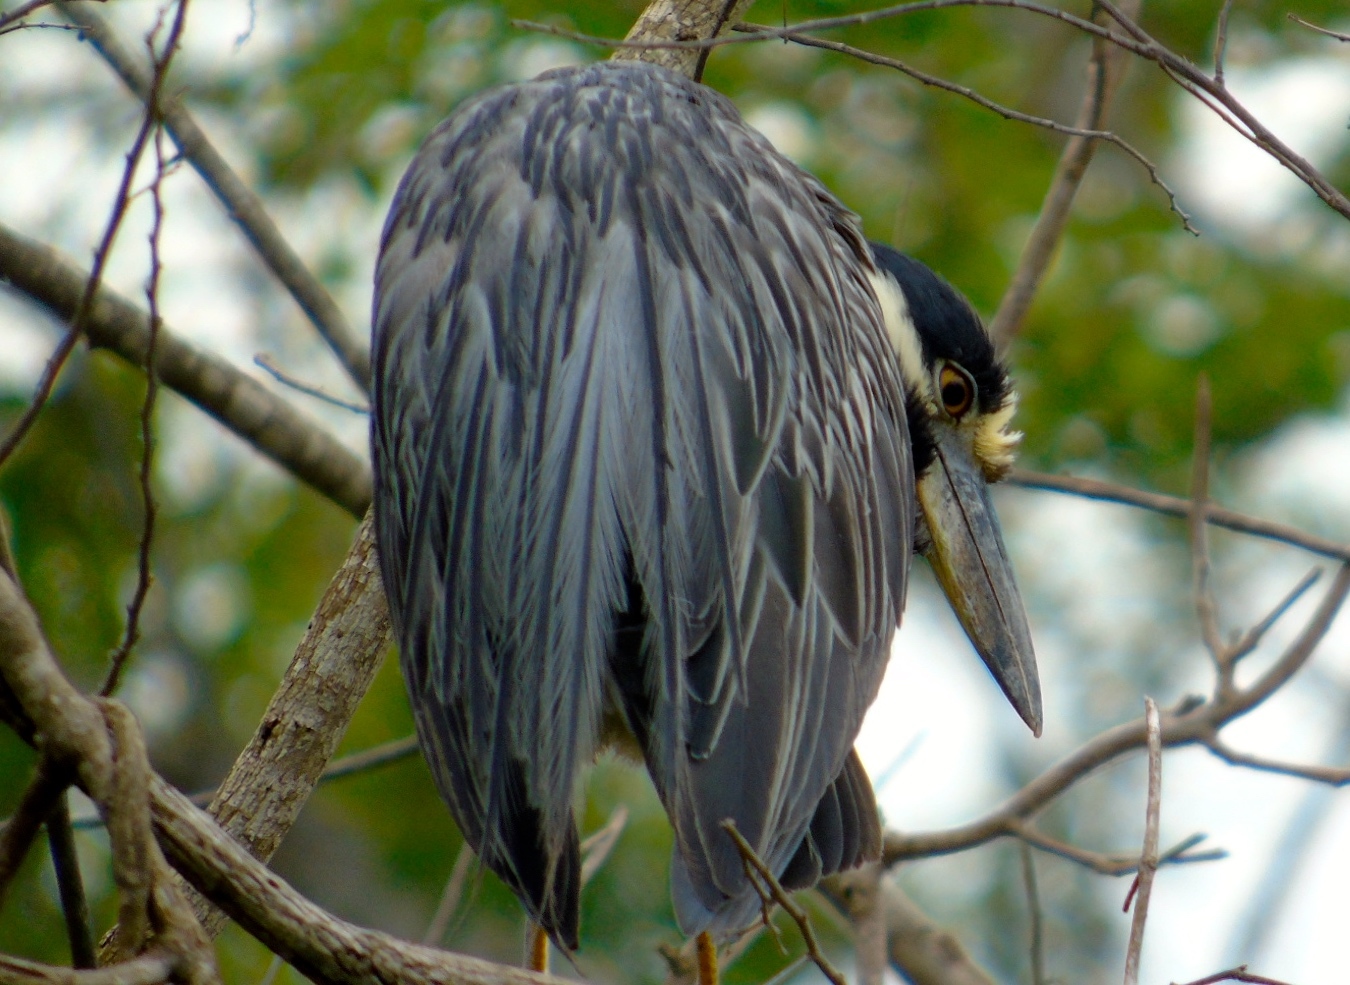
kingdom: Animalia
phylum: Chordata
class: Aves
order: Pelecaniformes
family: Ardeidae
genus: Nyctanassa
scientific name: Nyctanassa violacea
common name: Yellow-crowned night heron
